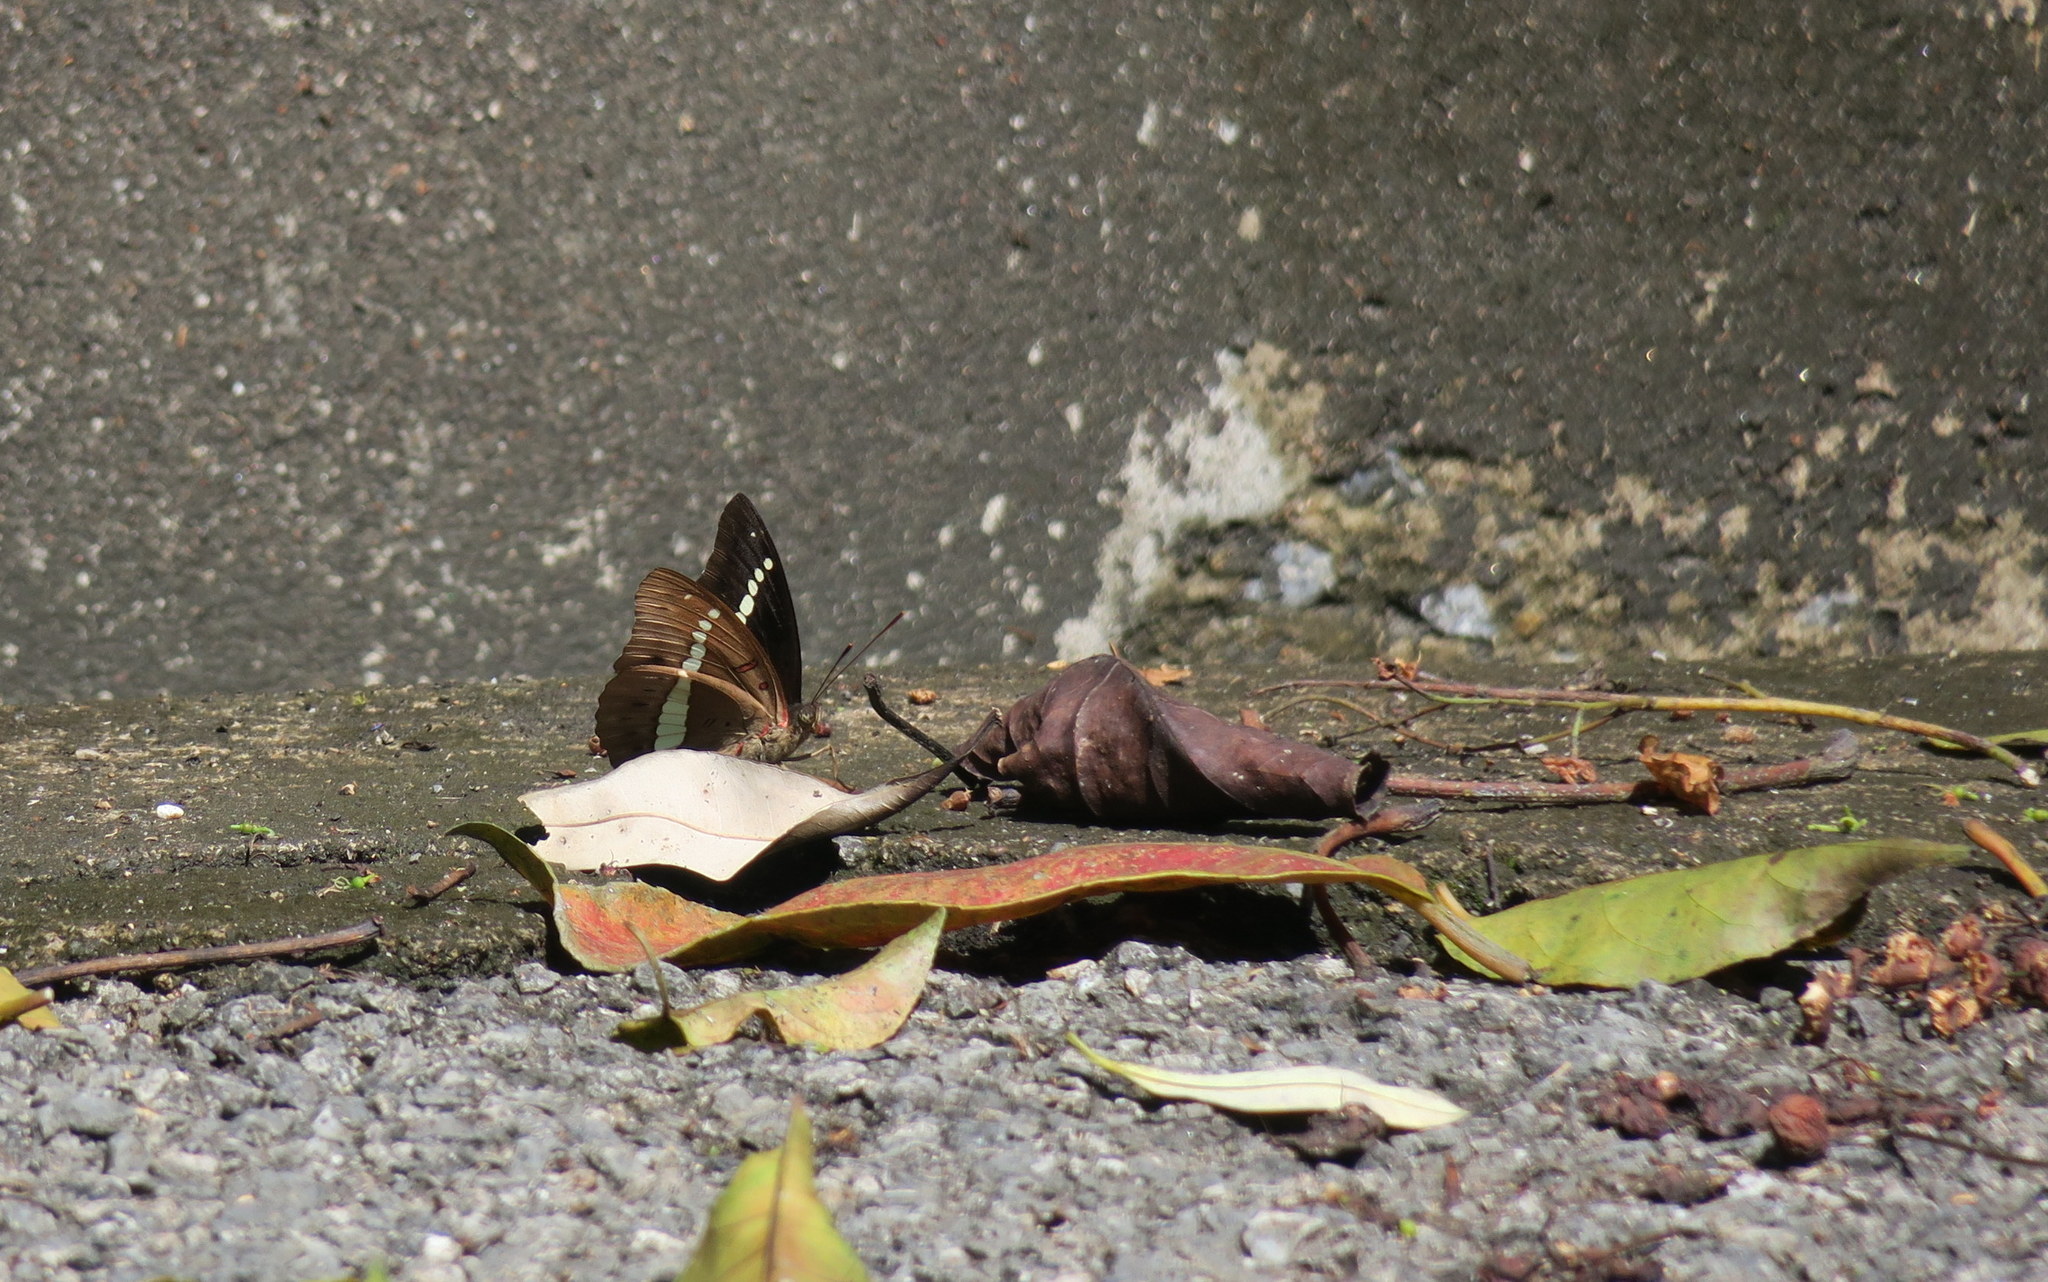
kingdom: Animalia
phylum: Arthropoda
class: Insecta
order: Lepidoptera
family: Nymphalidae
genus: Euthalia
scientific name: Euthalia recta
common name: Redtail marquis
